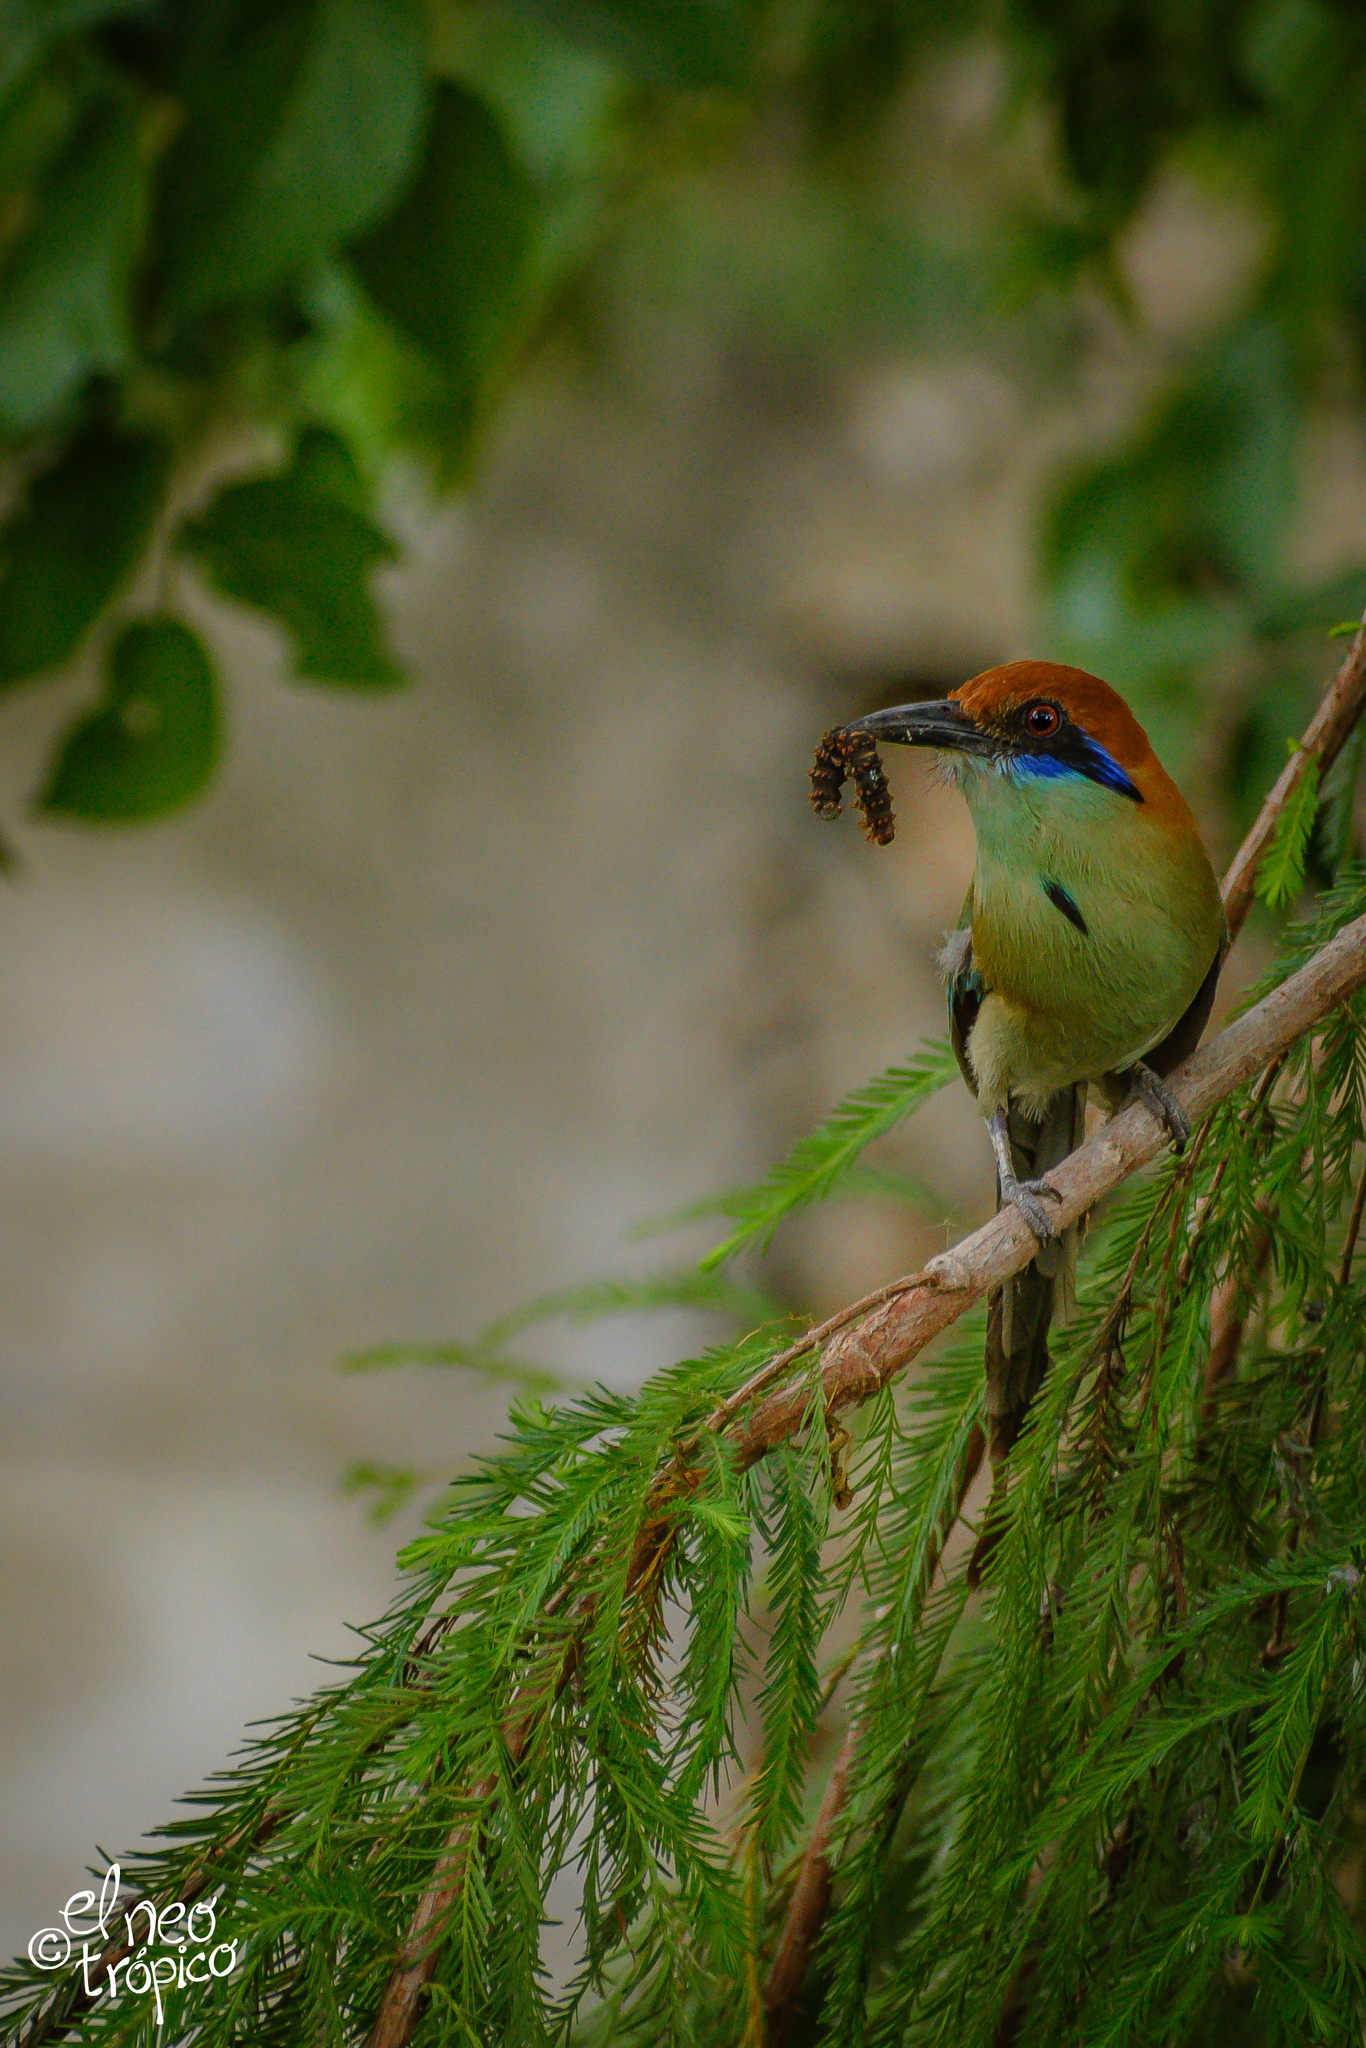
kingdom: Animalia
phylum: Chordata
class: Aves
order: Coraciiformes
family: Momotidae
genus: Momotus
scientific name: Momotus mexicanus
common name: Russet-crowned motmot
